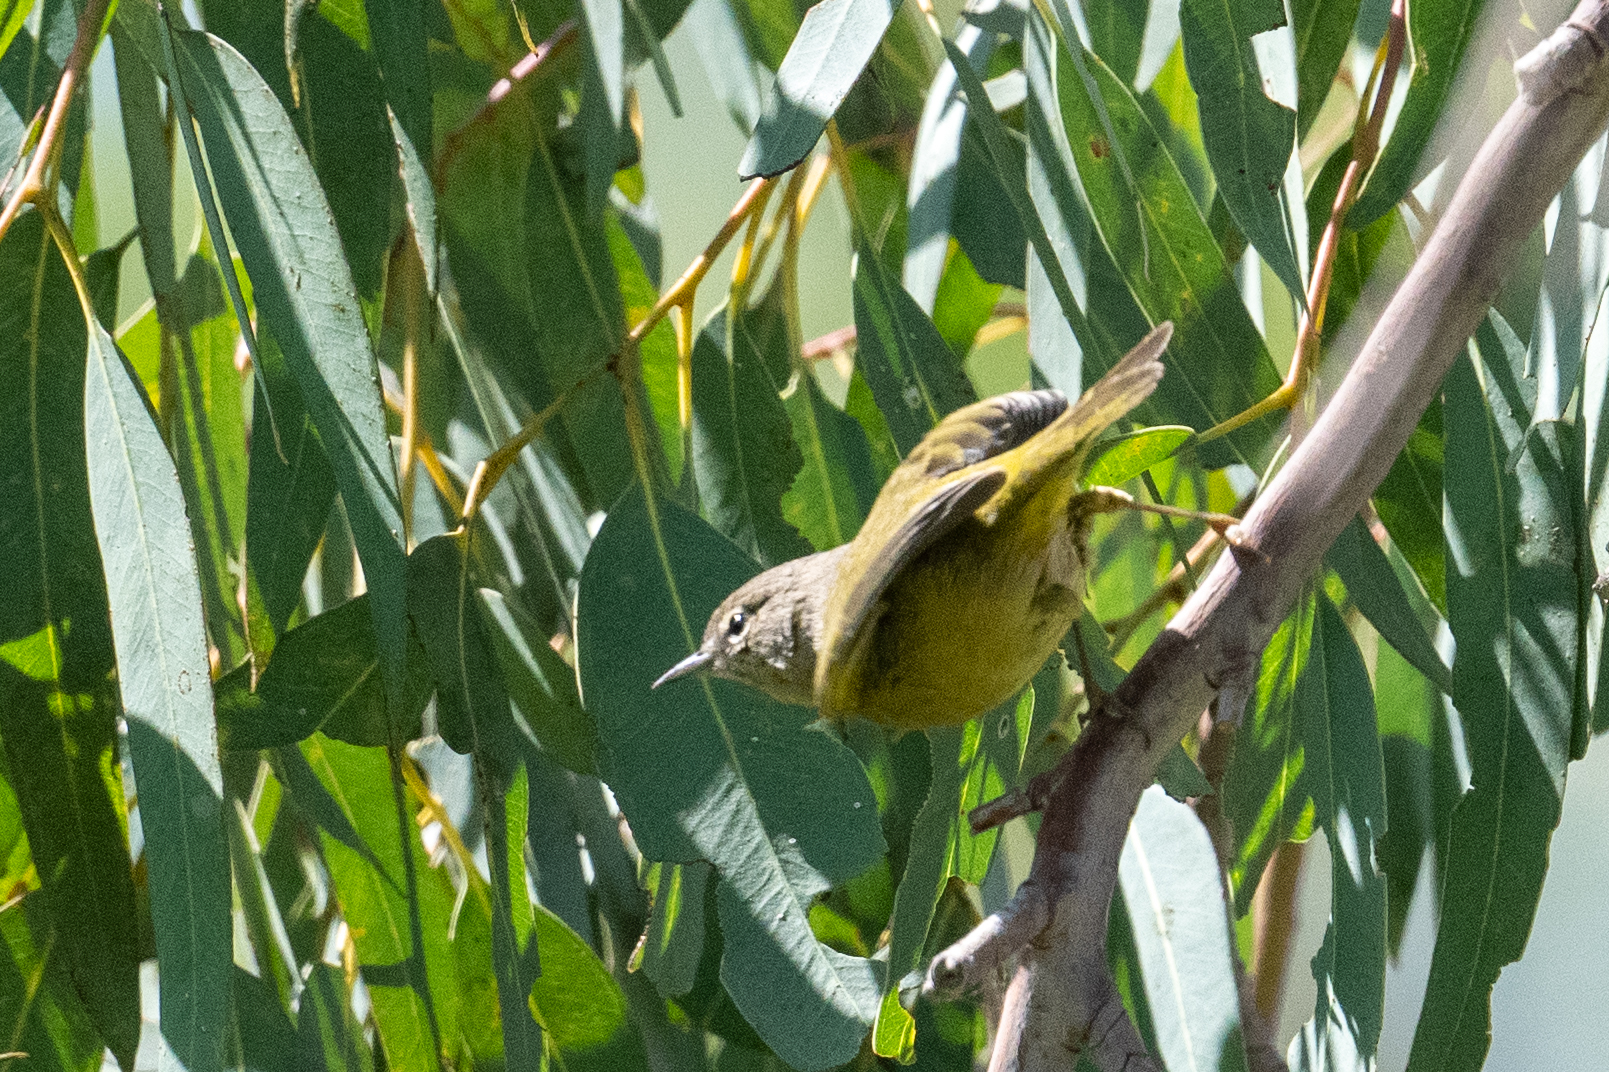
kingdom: Animalia
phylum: Chordata
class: Aves
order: Passeriformes
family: Parulidae
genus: Geothlypis
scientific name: Geothlypis tolmiei
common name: Macgillivray's warbler
